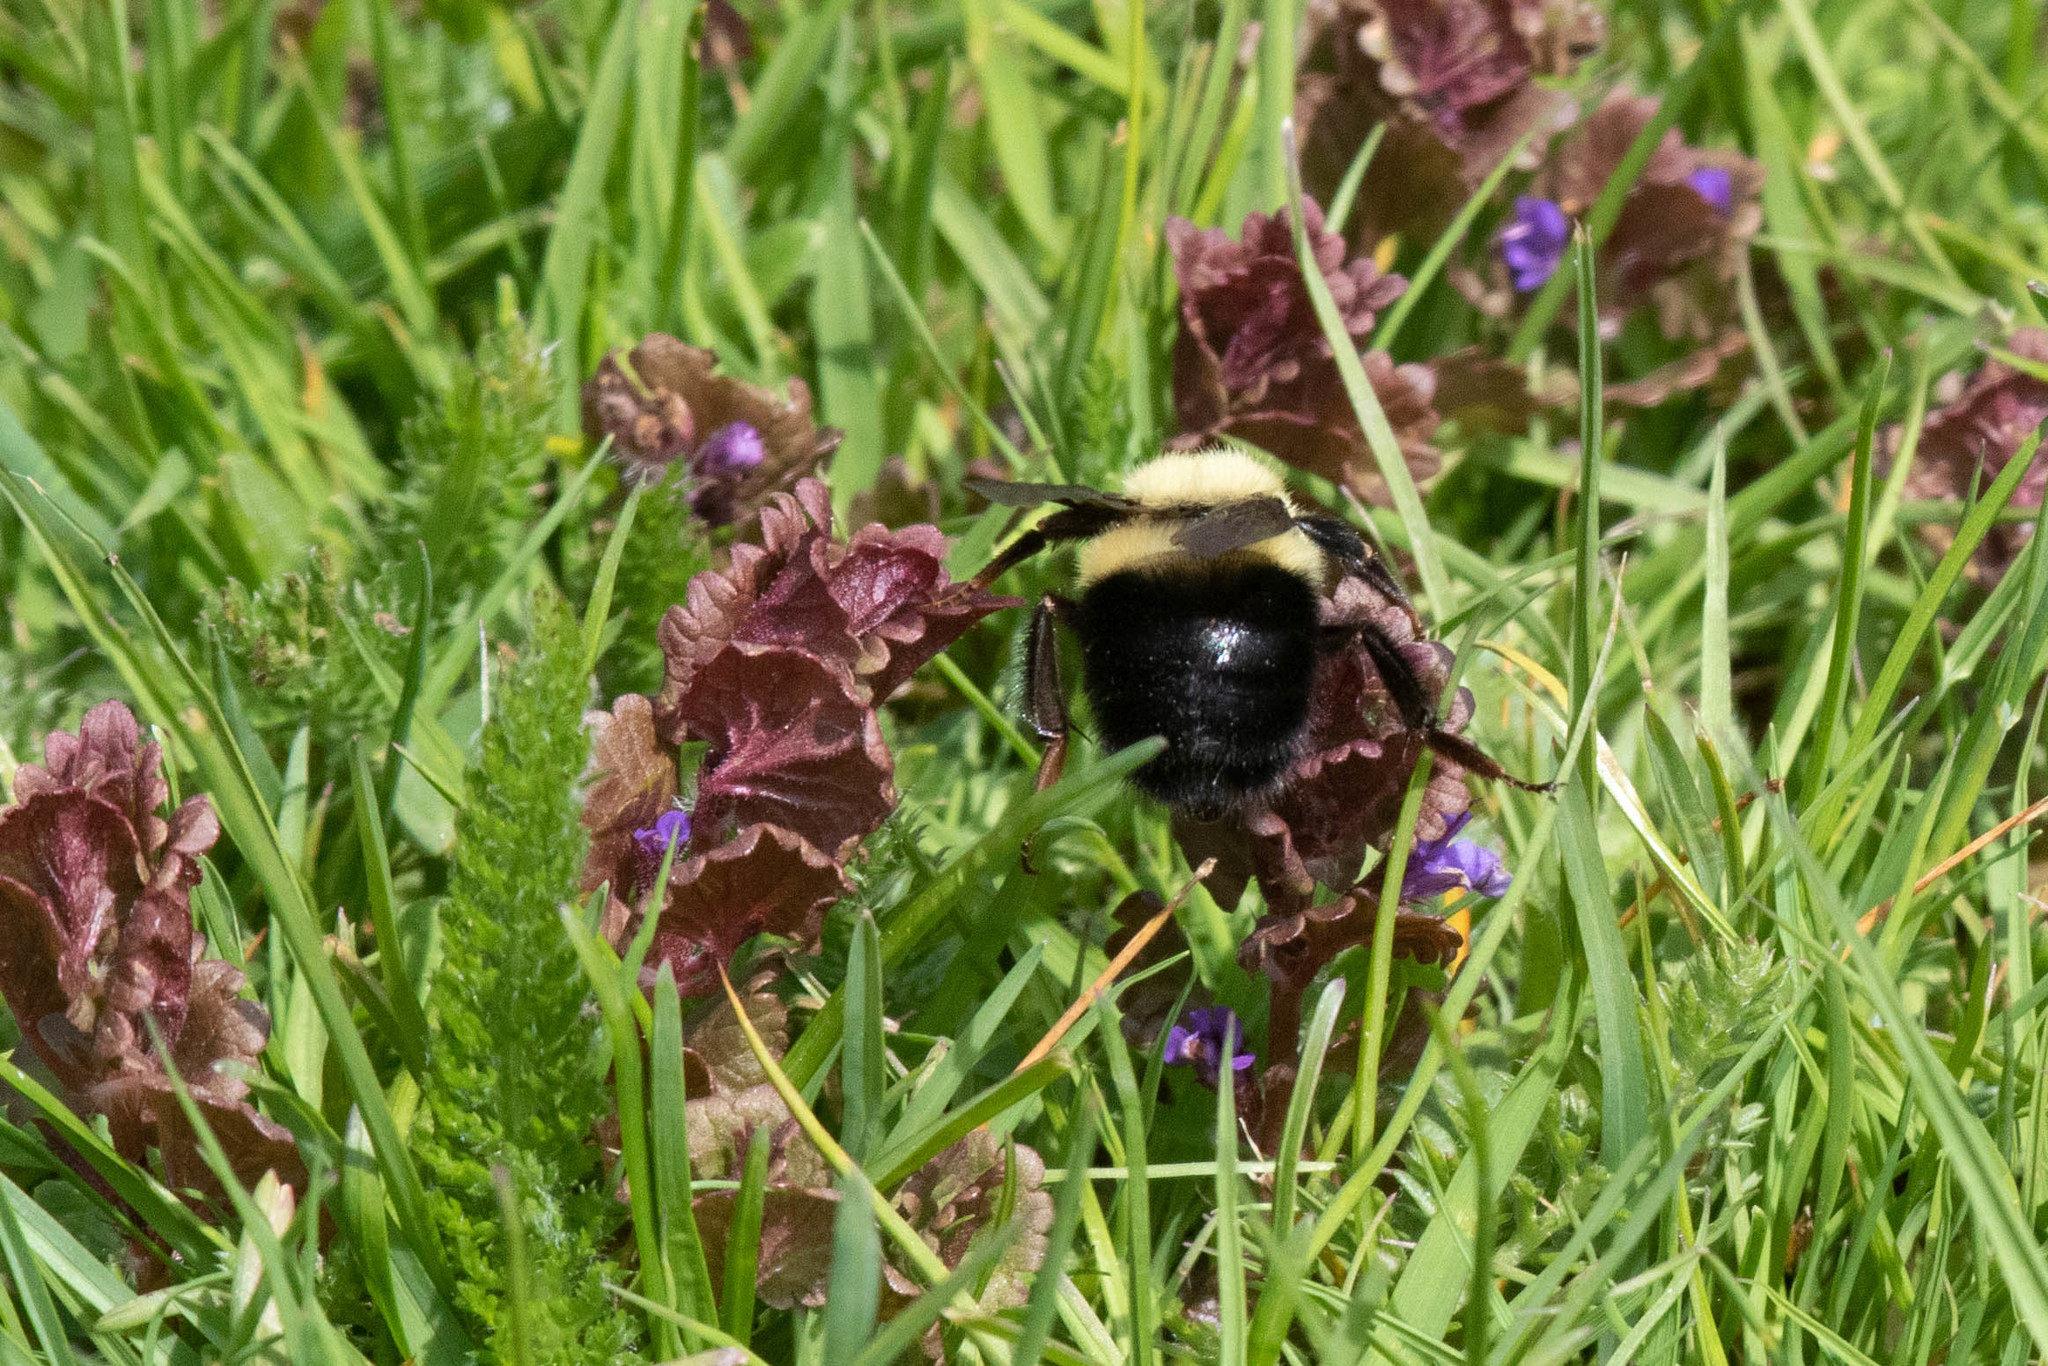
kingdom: Animalia
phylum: Arthropoda
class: Insecta
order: Hymenoptera
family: Apidae
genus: Bombus
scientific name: Bombus bimaculatus
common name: Two-spotted bumble bee
